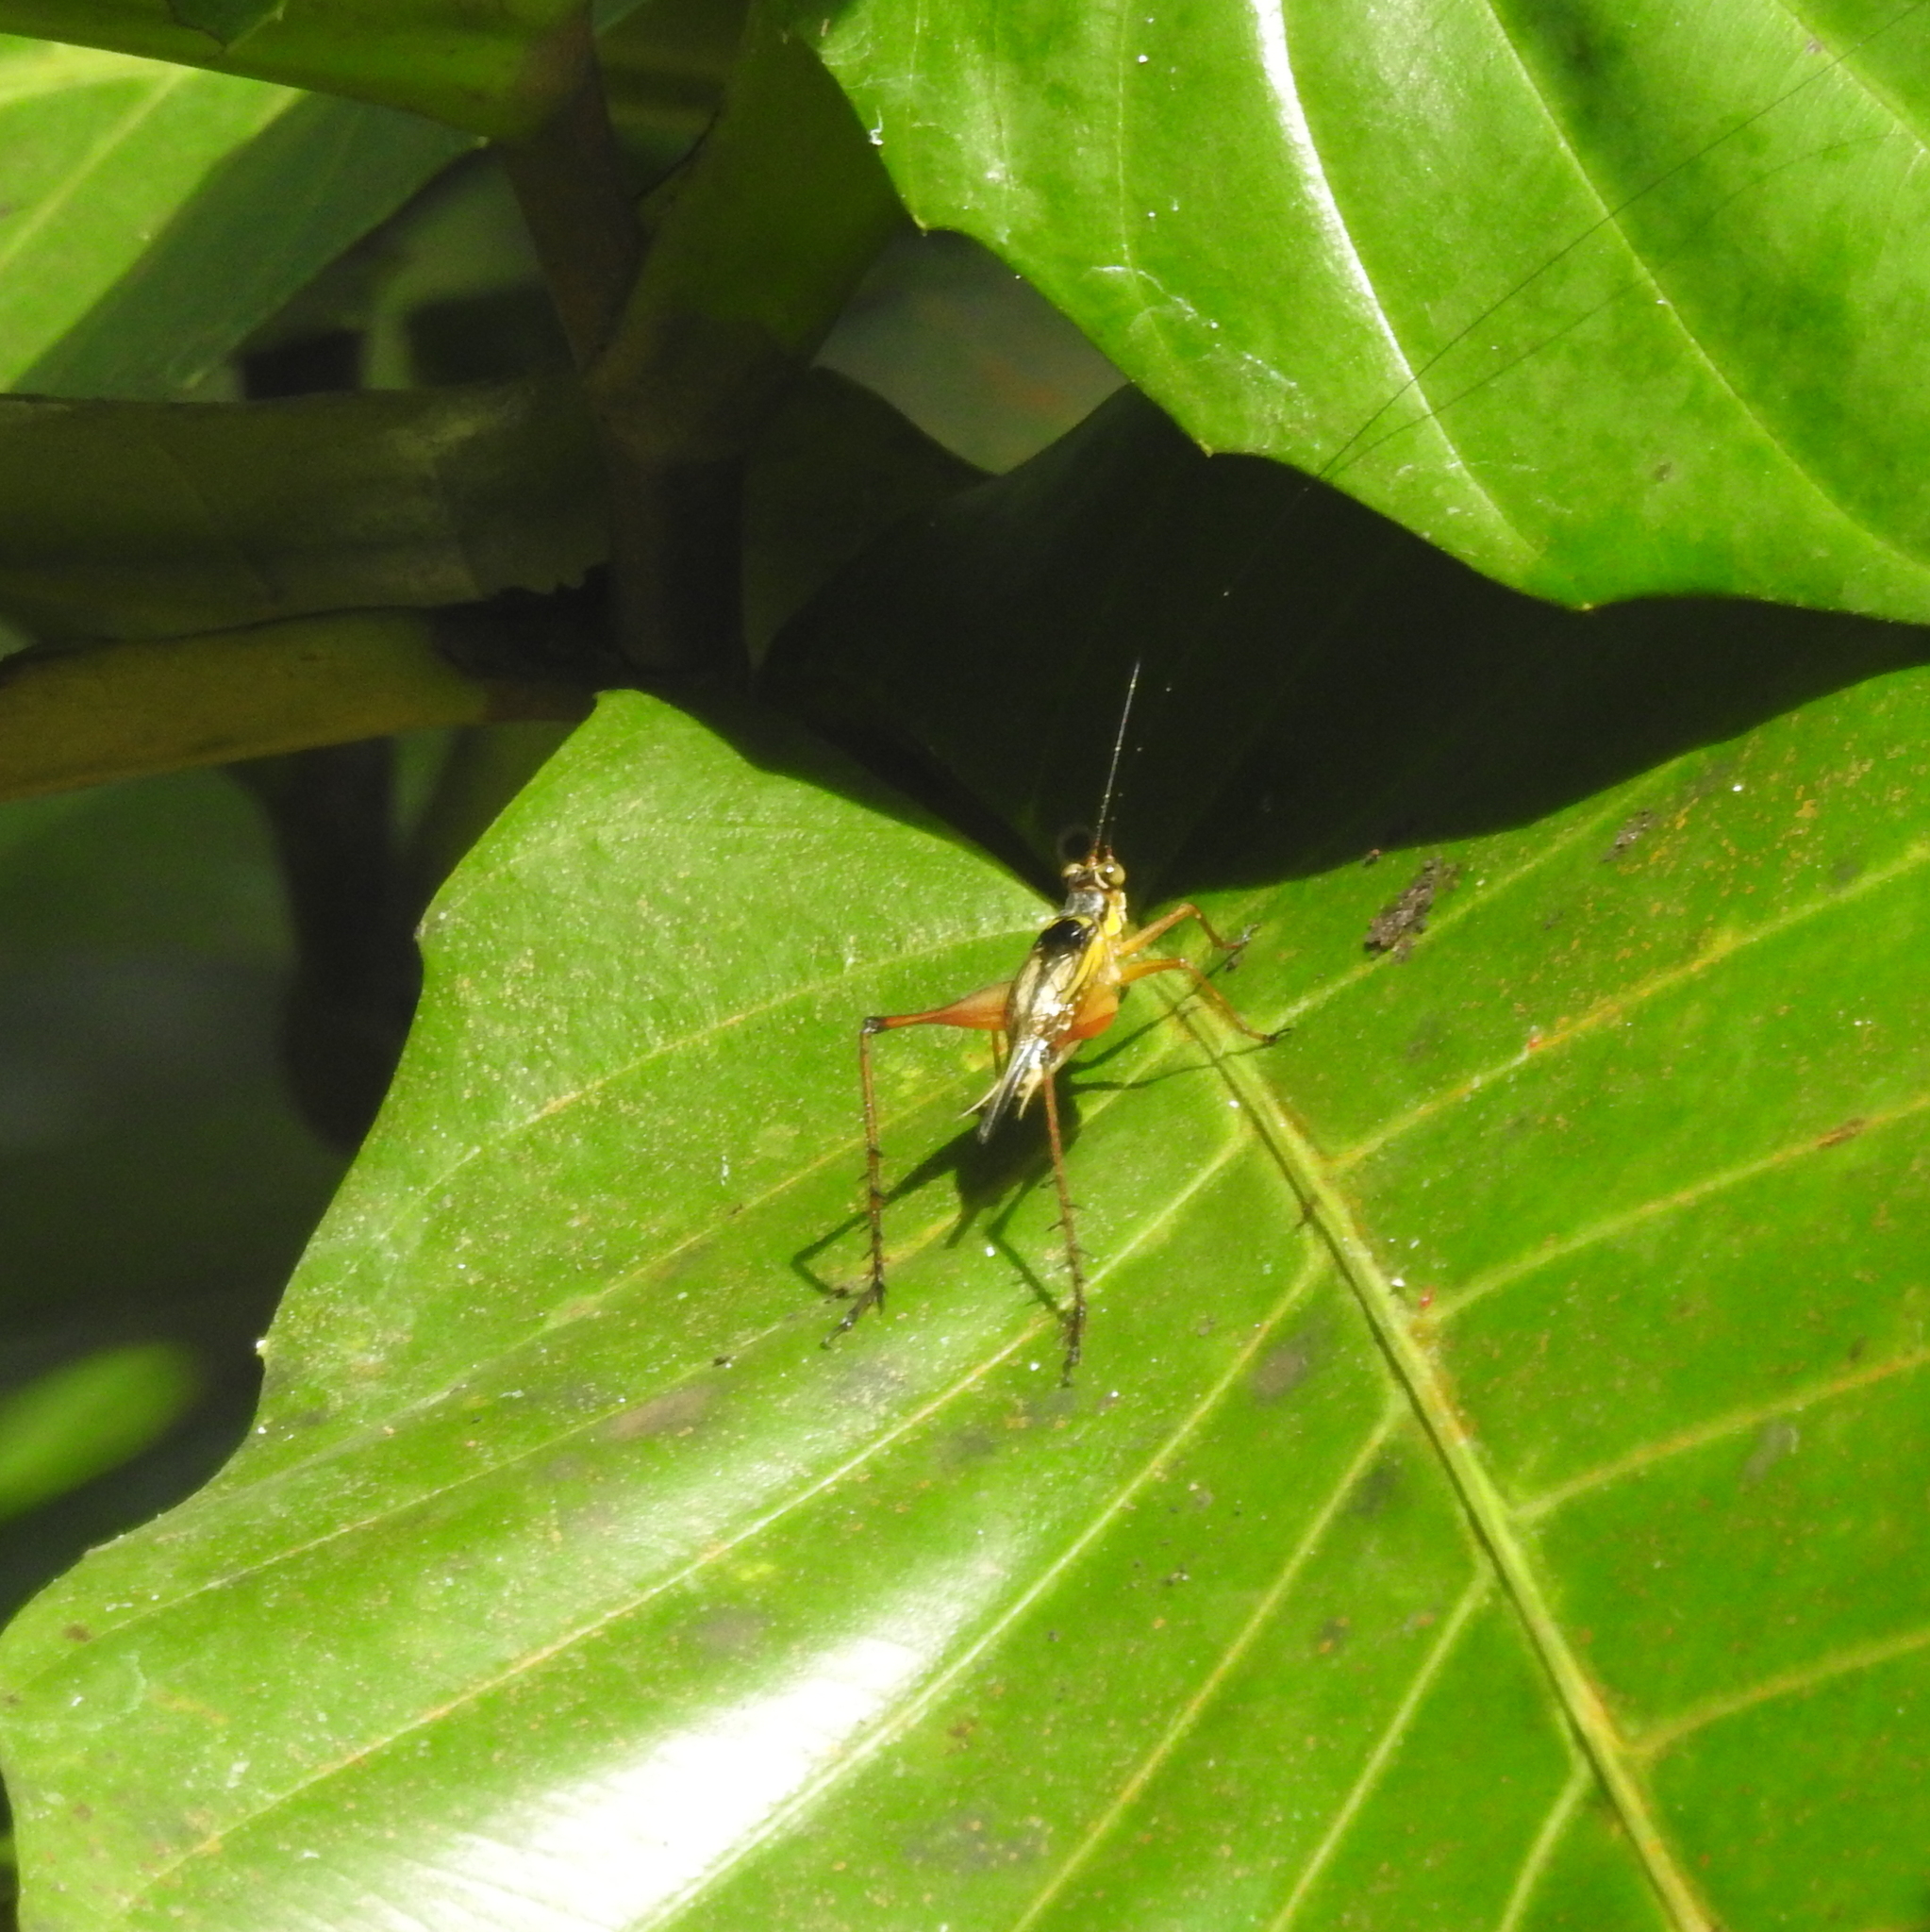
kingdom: Animalia
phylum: Arthropoda
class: Insecta
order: Orthoptera
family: Gryllidae
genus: Nisitrus
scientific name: Nisitrus malaya
